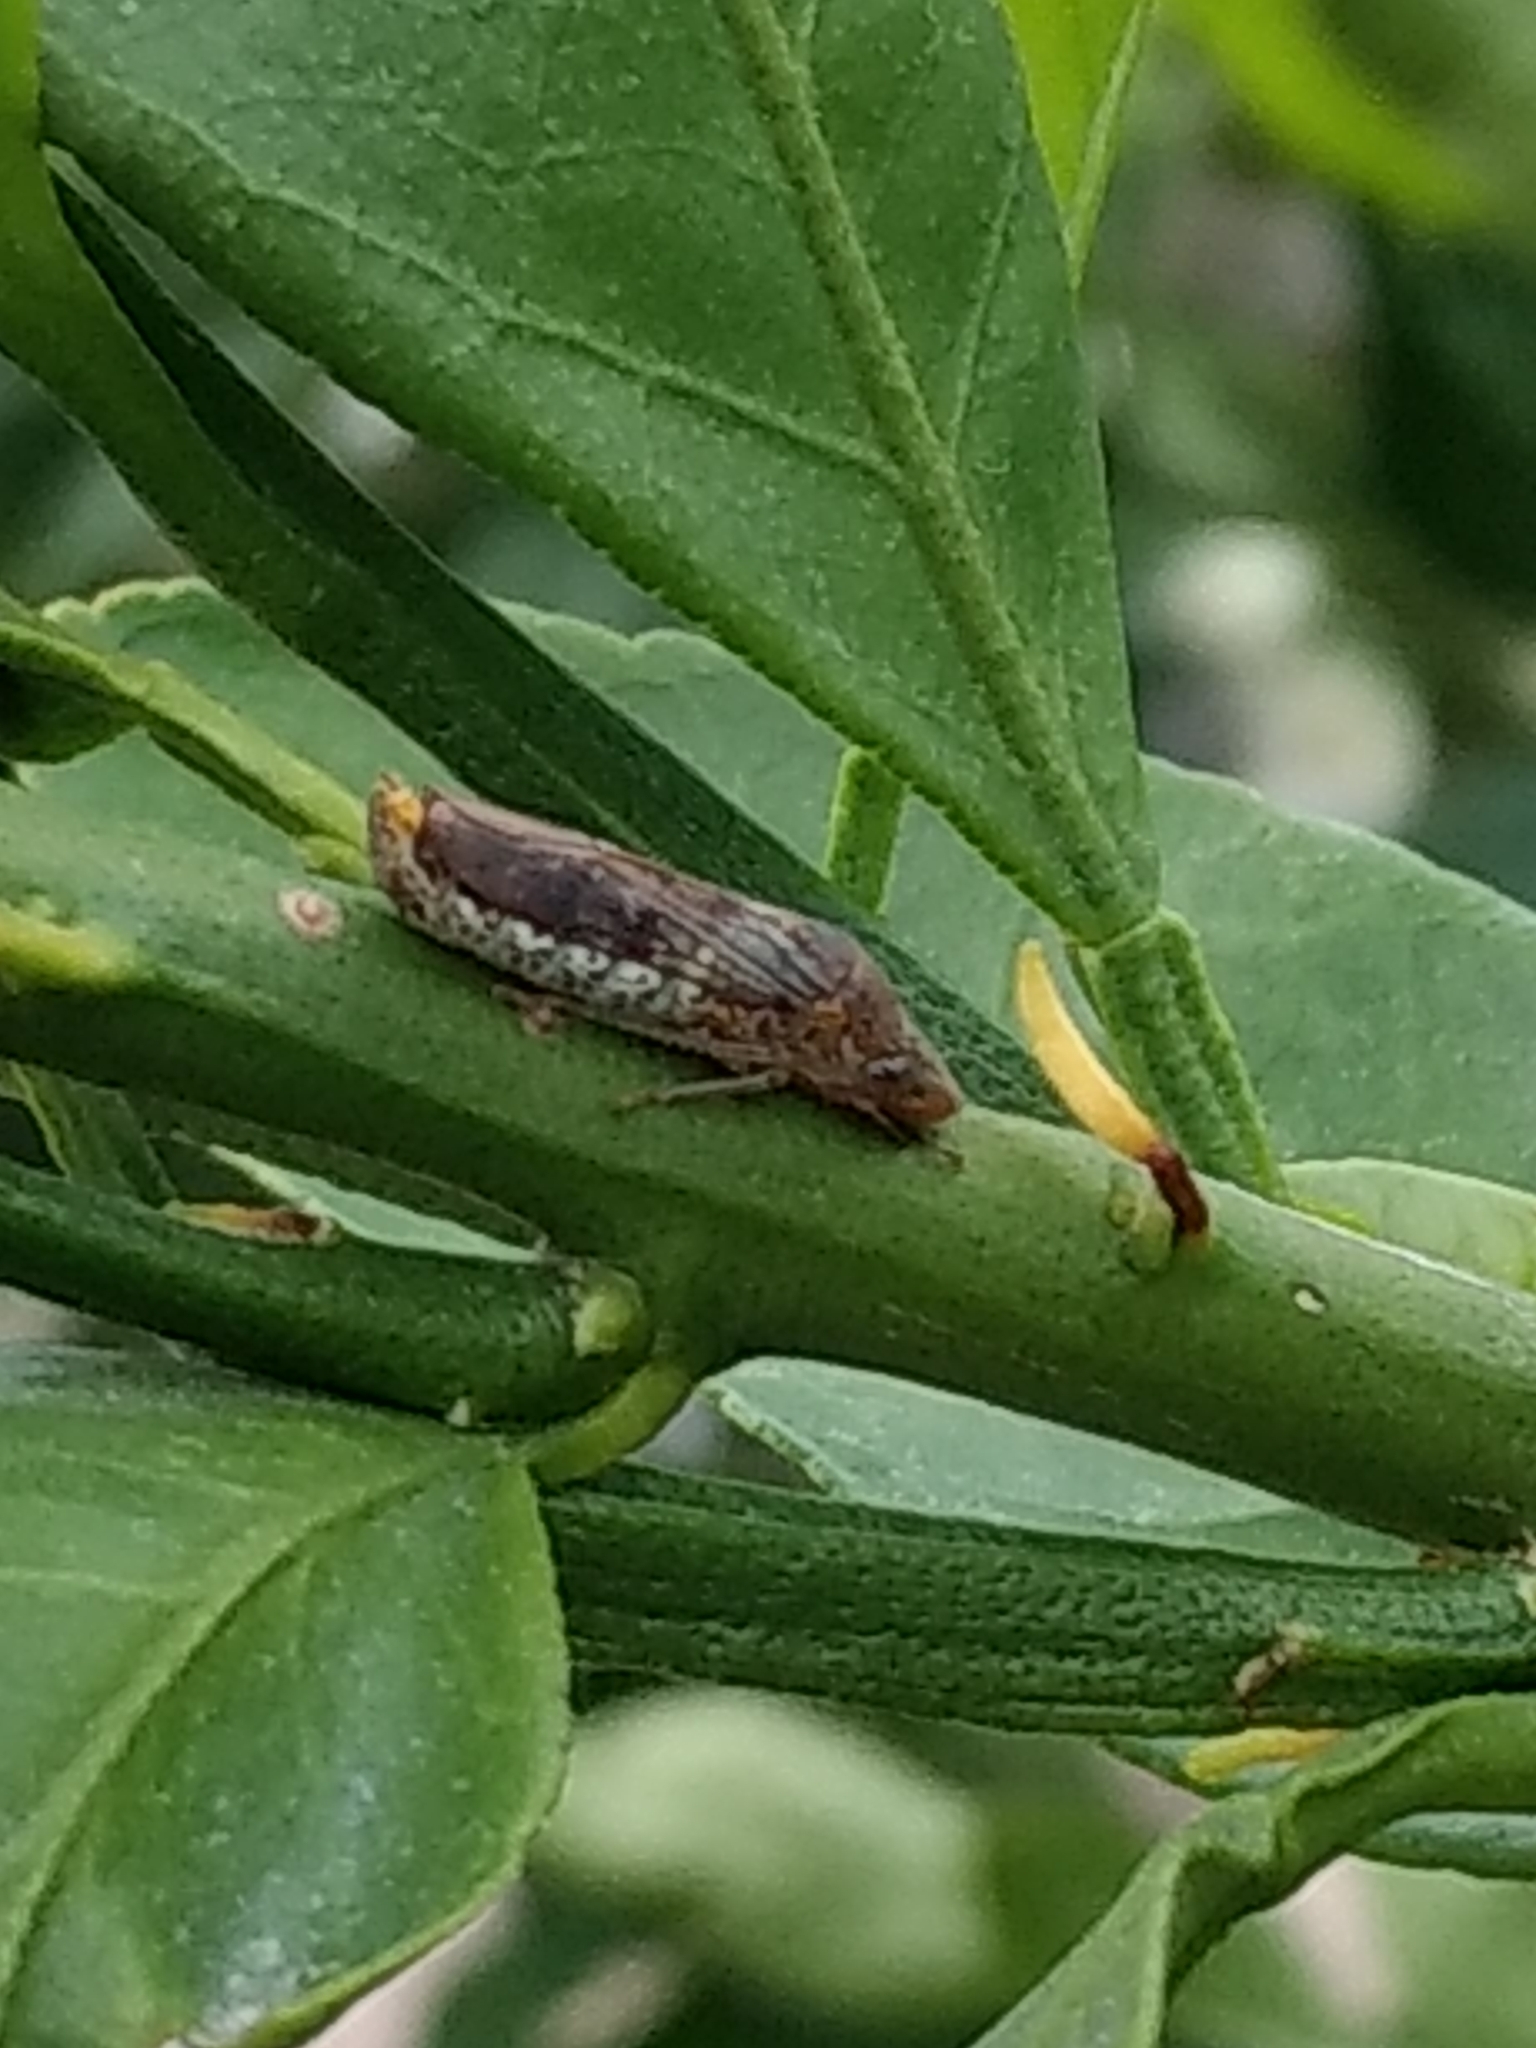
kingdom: Animalia
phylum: Arthropoda
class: Insecta
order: Hemiptera
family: Cicadellidae
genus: Homalodisca
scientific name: Homalodisca vitripennis
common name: Glassy-winged sharpshooter
